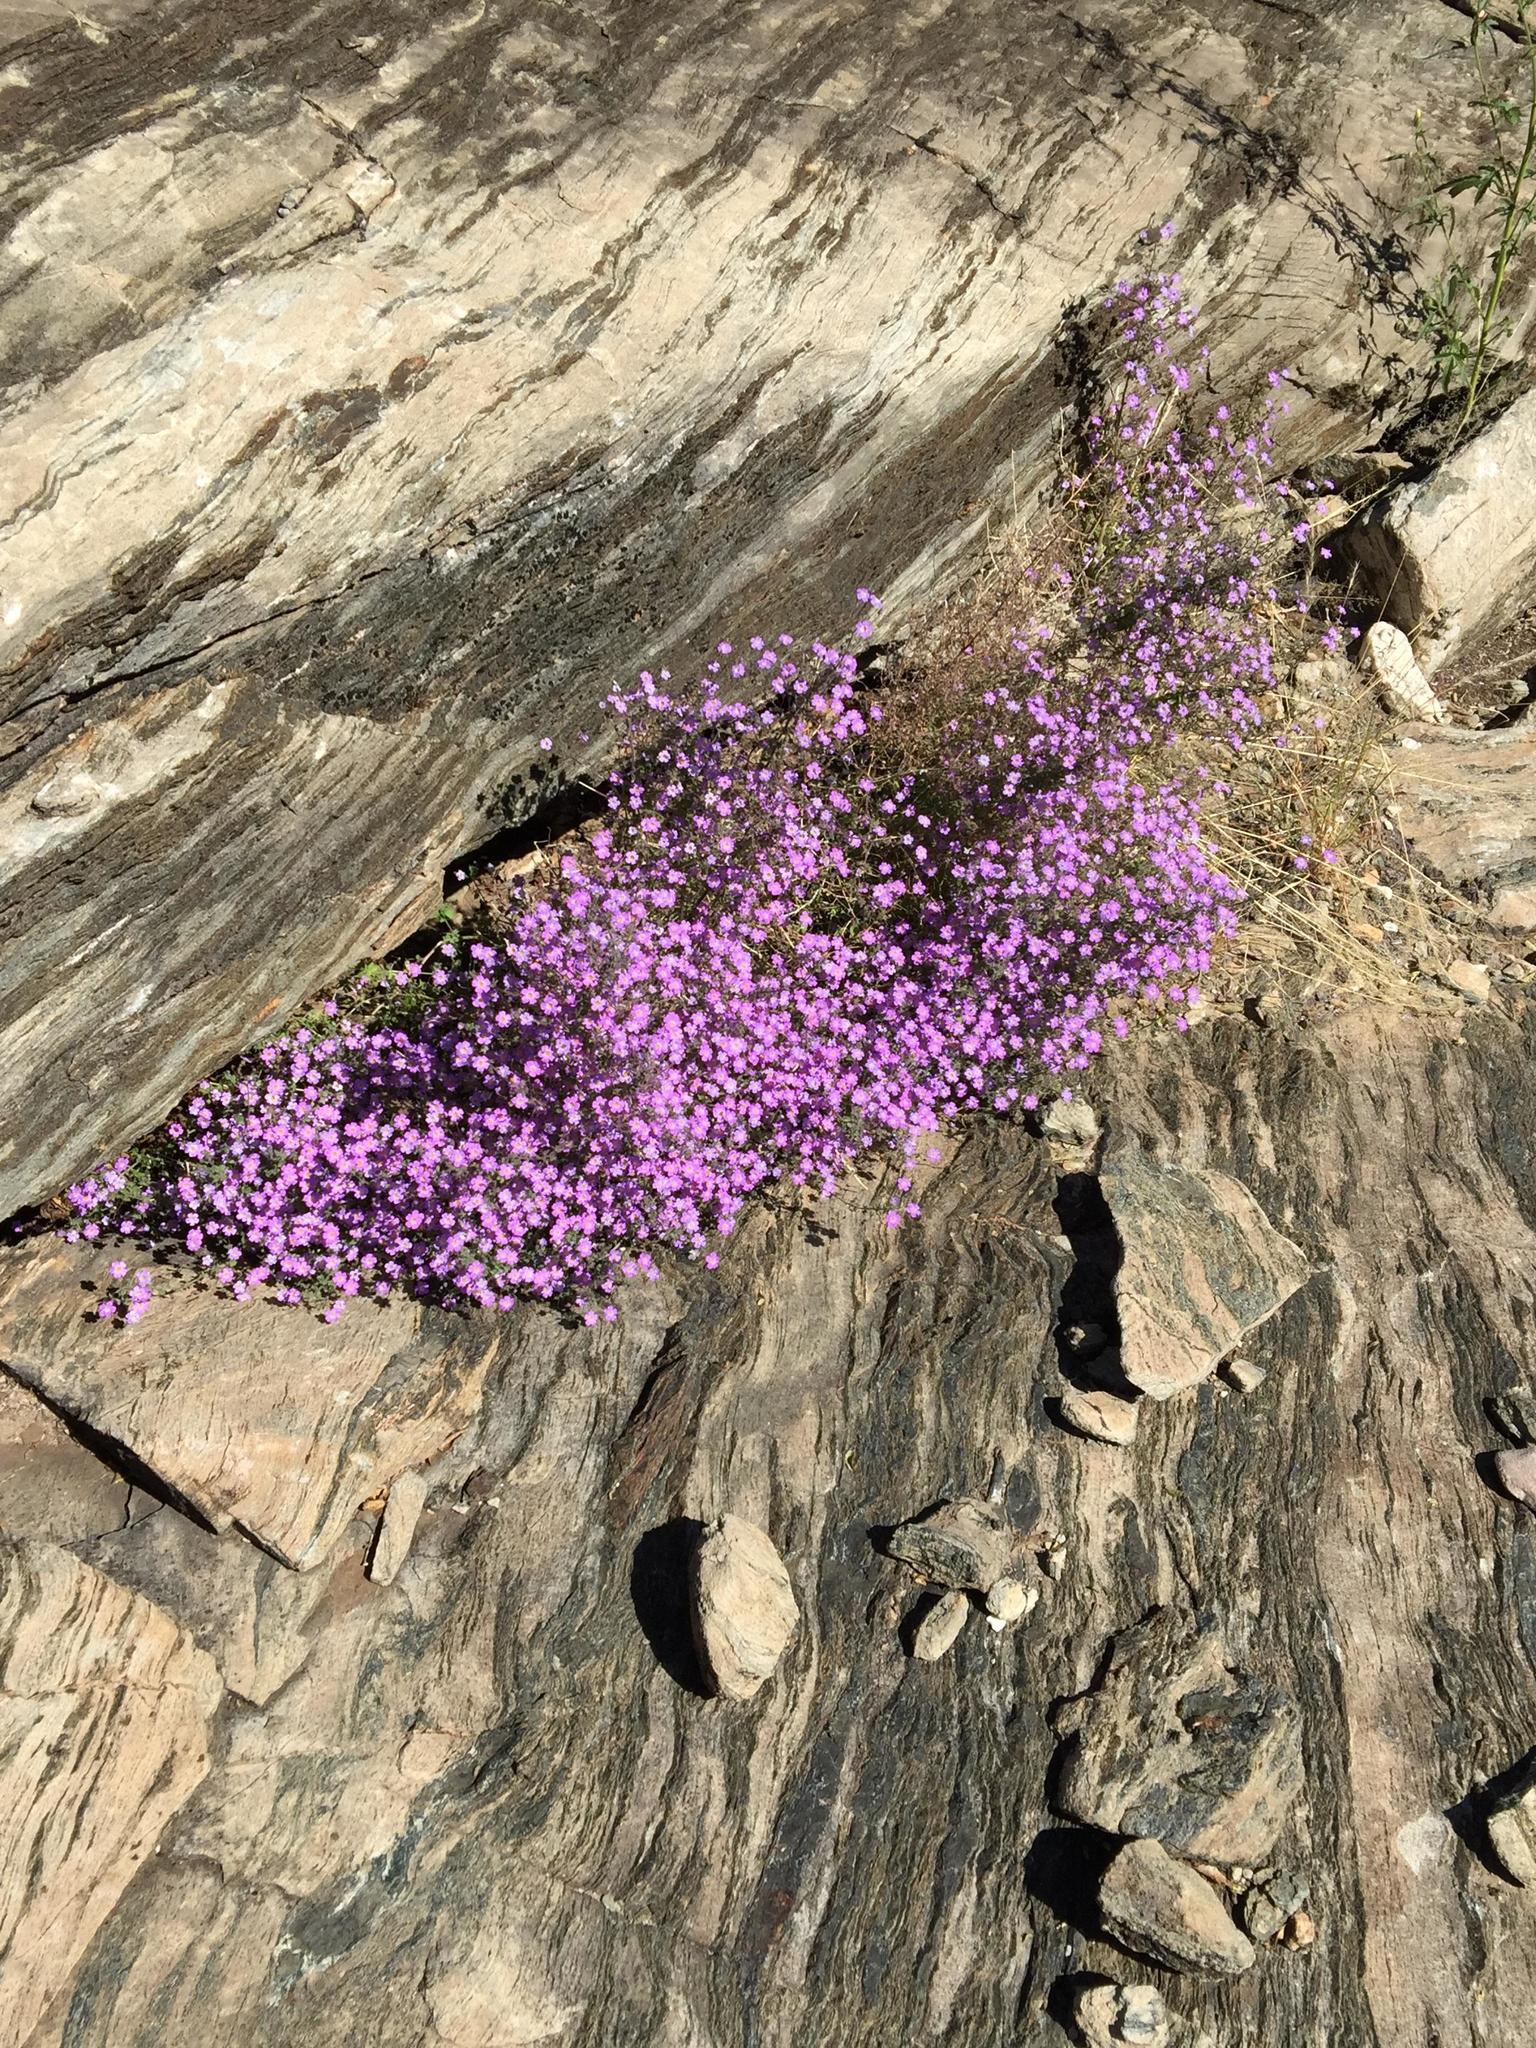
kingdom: Plantae
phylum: Tracheophyta
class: Magnoliopsida
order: Lamiales
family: Scrophulariaceae
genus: Jamesbrittenia
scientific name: Jamesbrittenia hereroensis
